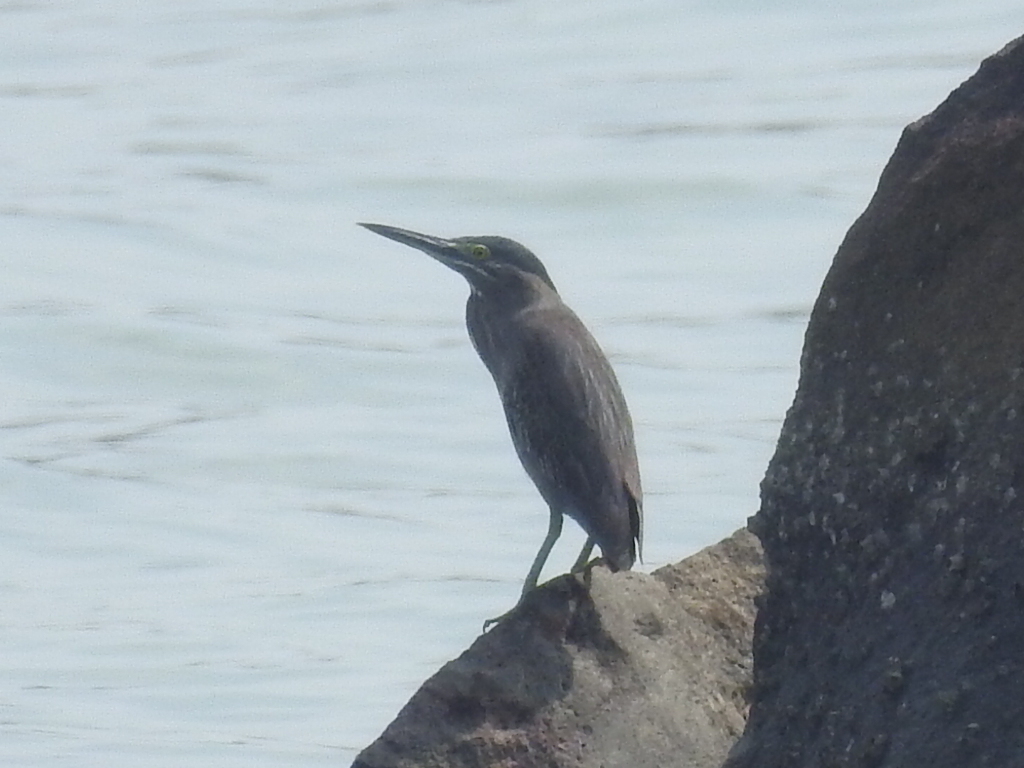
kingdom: Animalia
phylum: Chordata
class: Aves
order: Pelecaniformes
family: Ardeidae
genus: Butorides
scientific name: Butorides striata
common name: Striated heron
